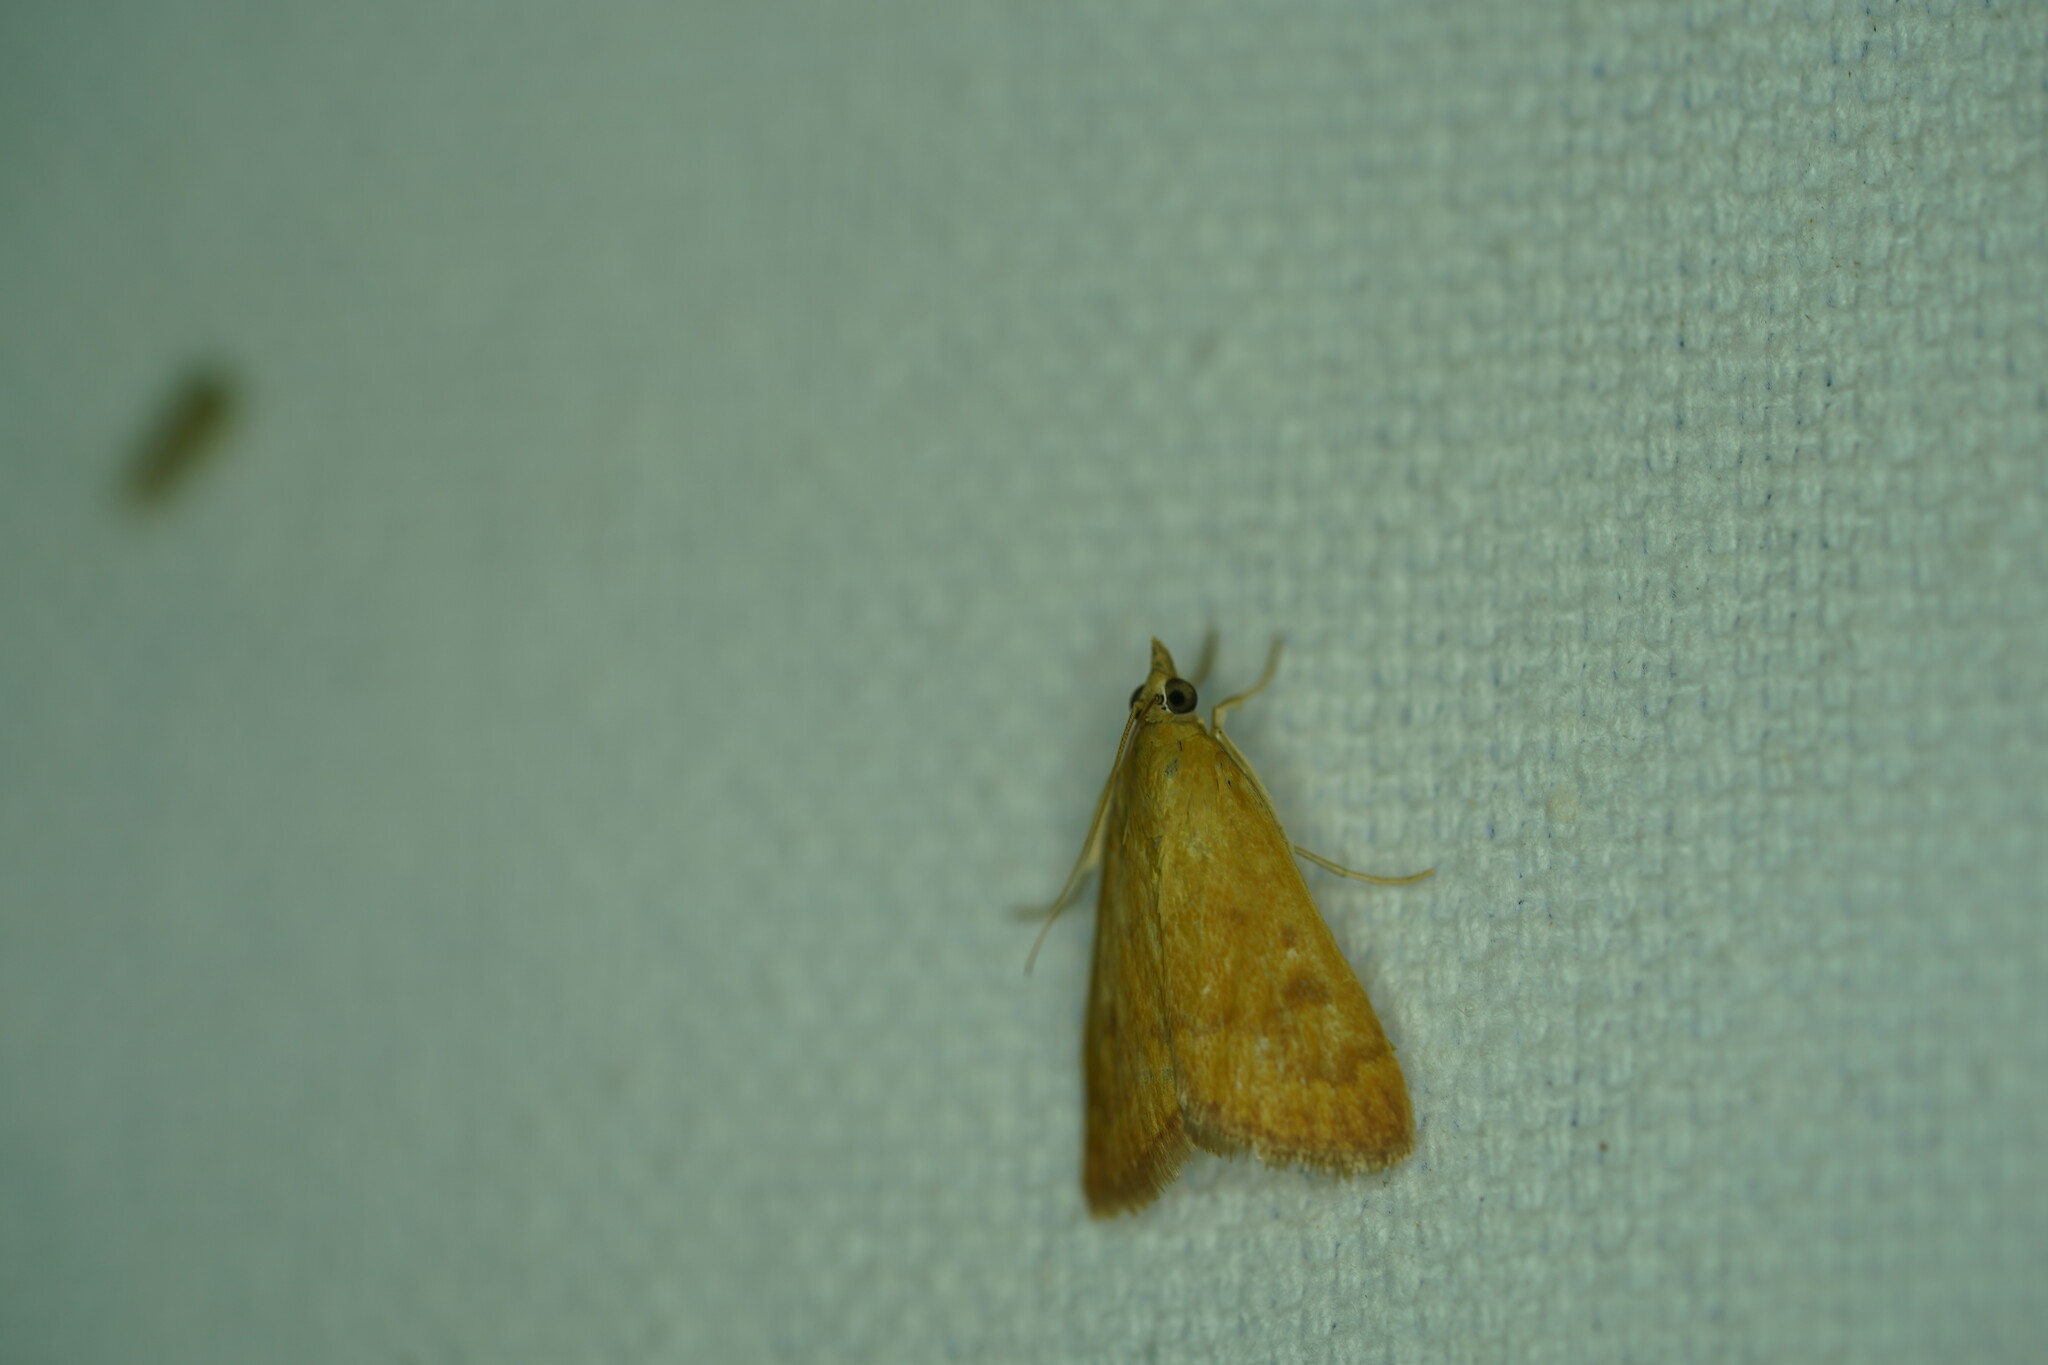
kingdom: Animalia
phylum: Arthropoda
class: Insecta
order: Lepidoptera
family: Crambidae
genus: Achyra
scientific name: Achyra rantalis
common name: Garden webworm
